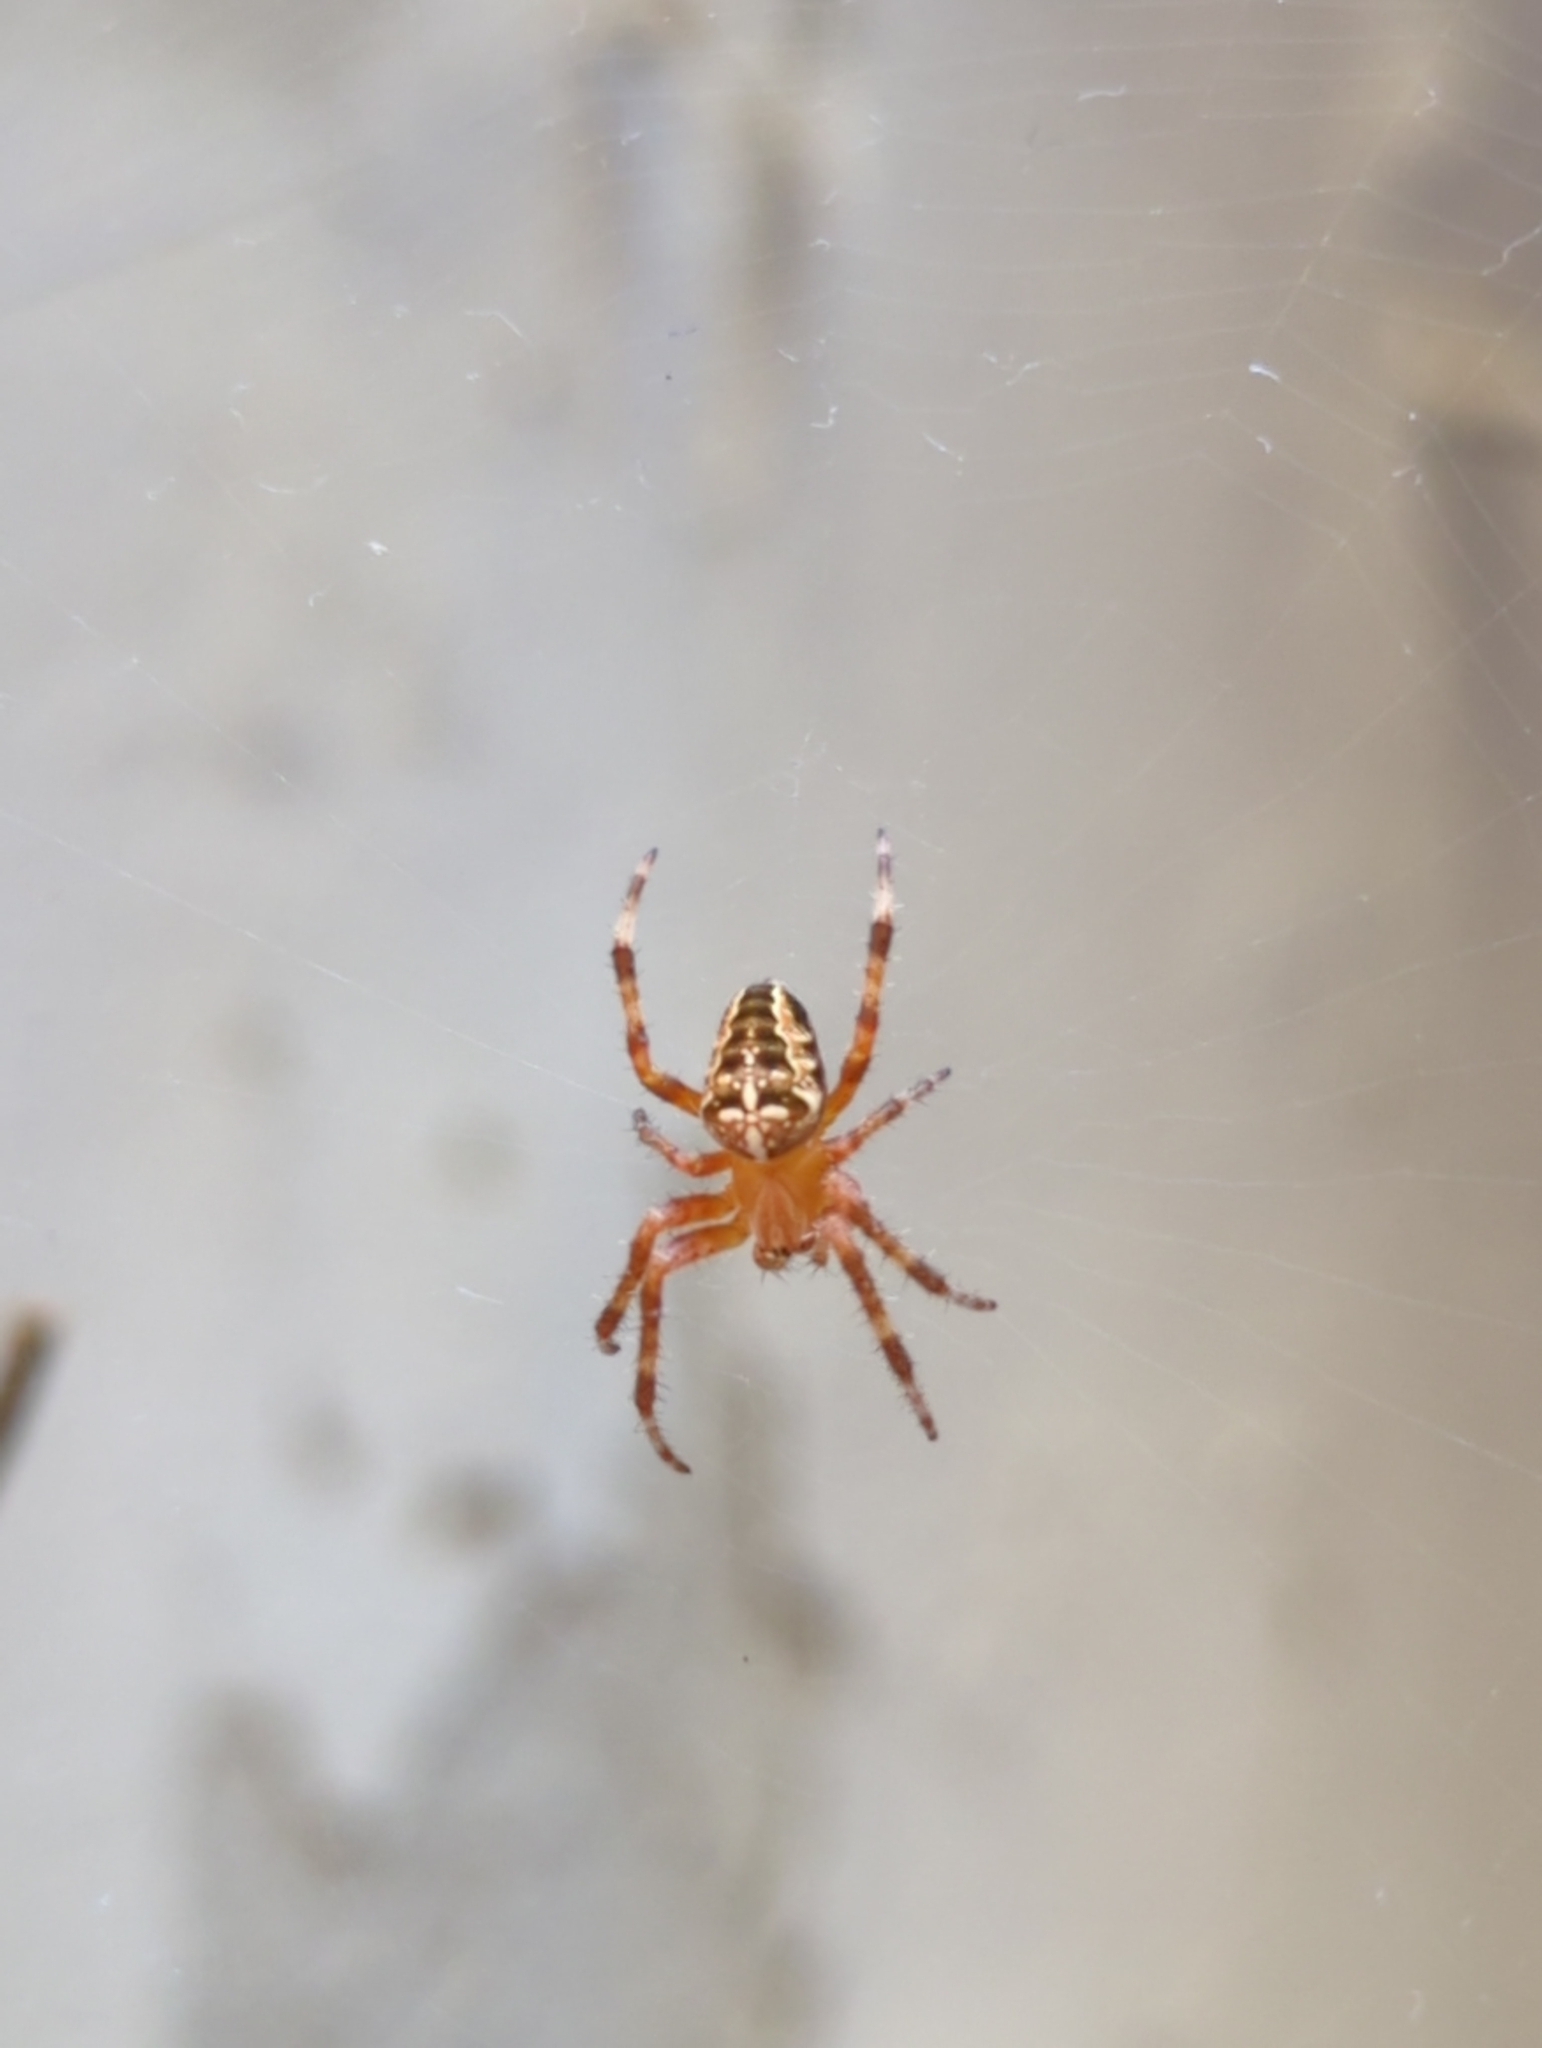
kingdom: Animalia
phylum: Arthropoda
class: Arachnida
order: Araneae
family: Araneidae
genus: Araneus
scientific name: Araneus diadematus
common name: Cross orbweaver
